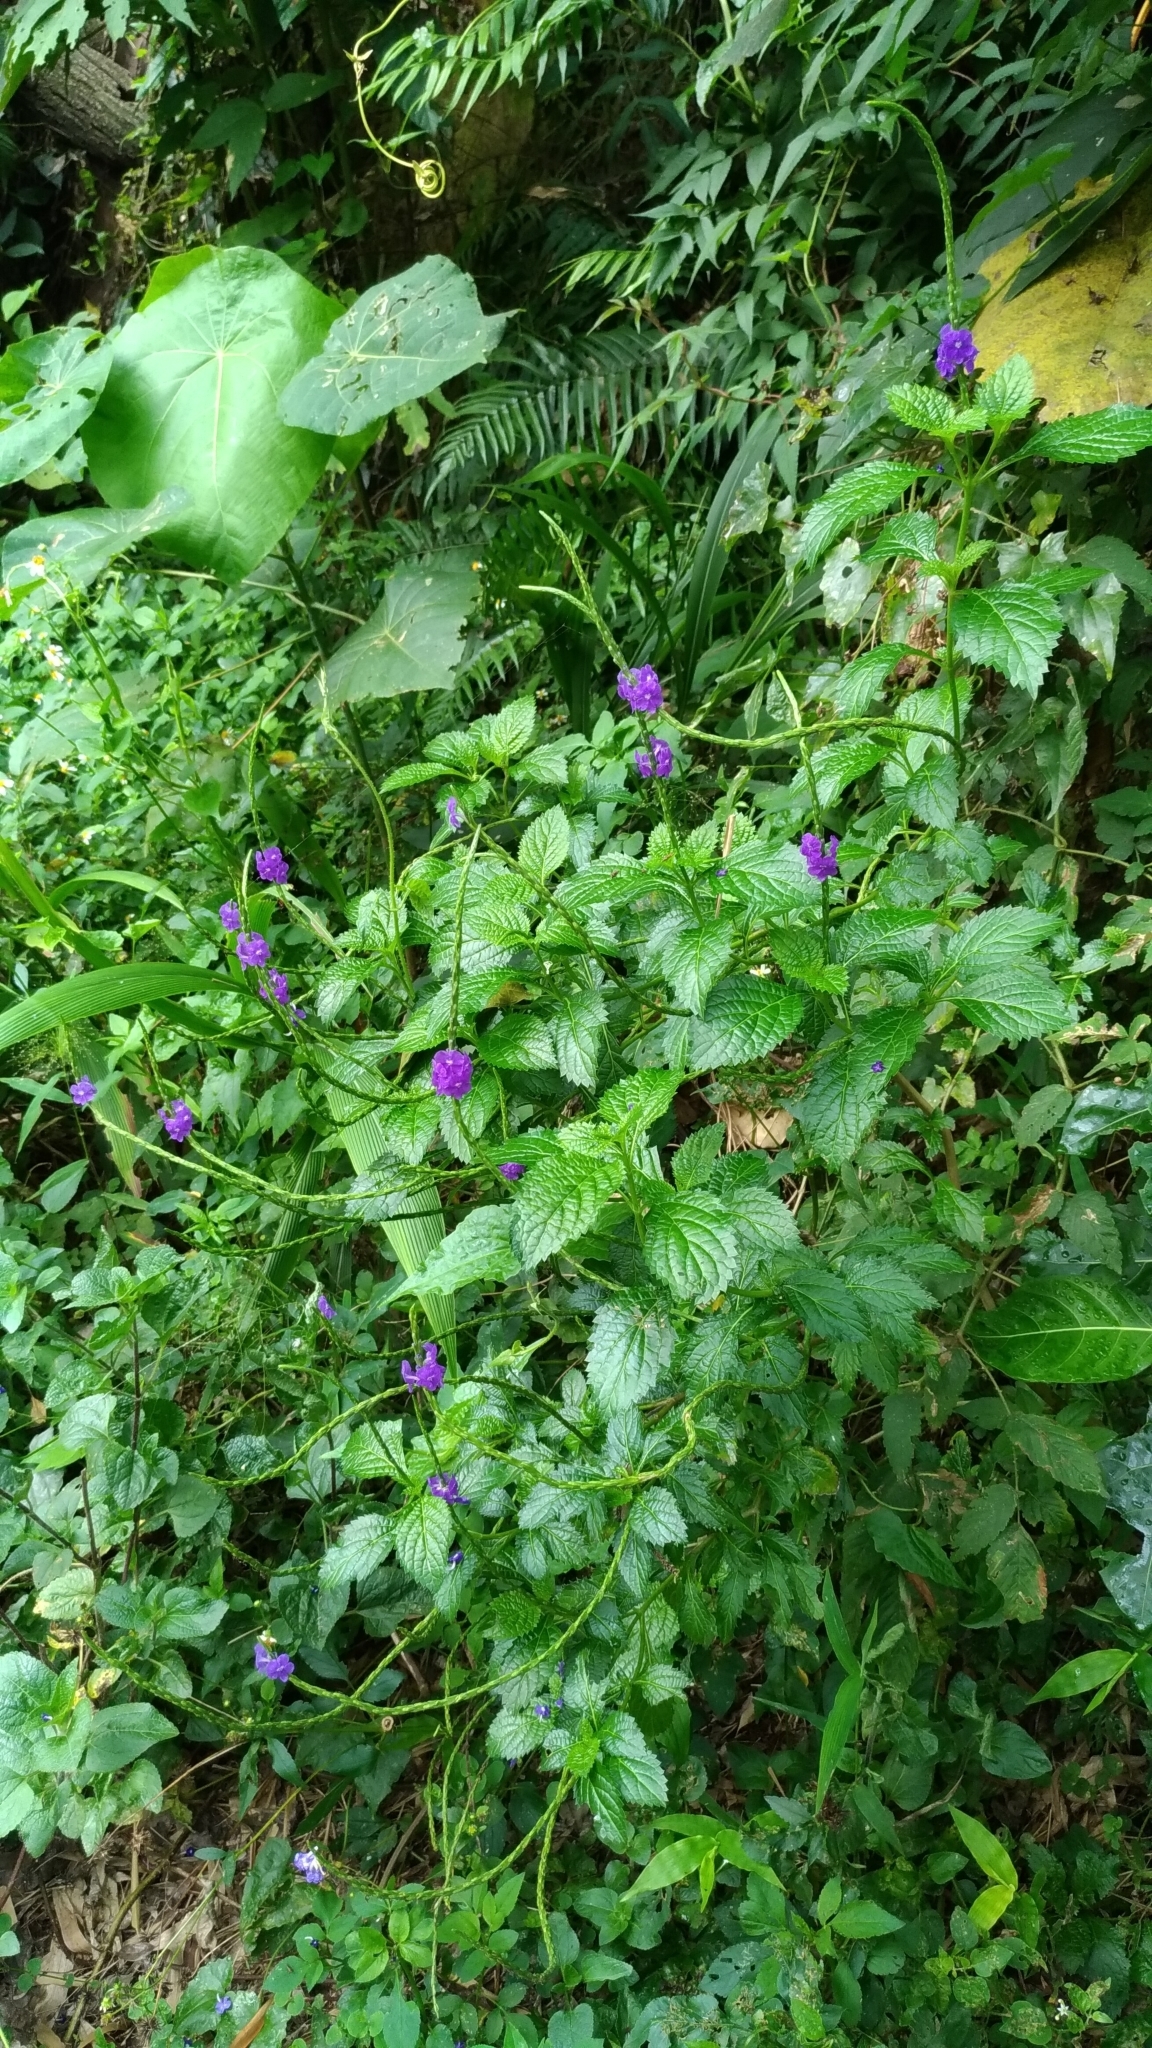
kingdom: Plantae
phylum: Tracheophyta
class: Magnoliopsida
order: Lamiales
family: Verbenaceae
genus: Stachytarpheta
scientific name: Stachytarpheta urticifolia
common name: Nettleleaf velvetberry
